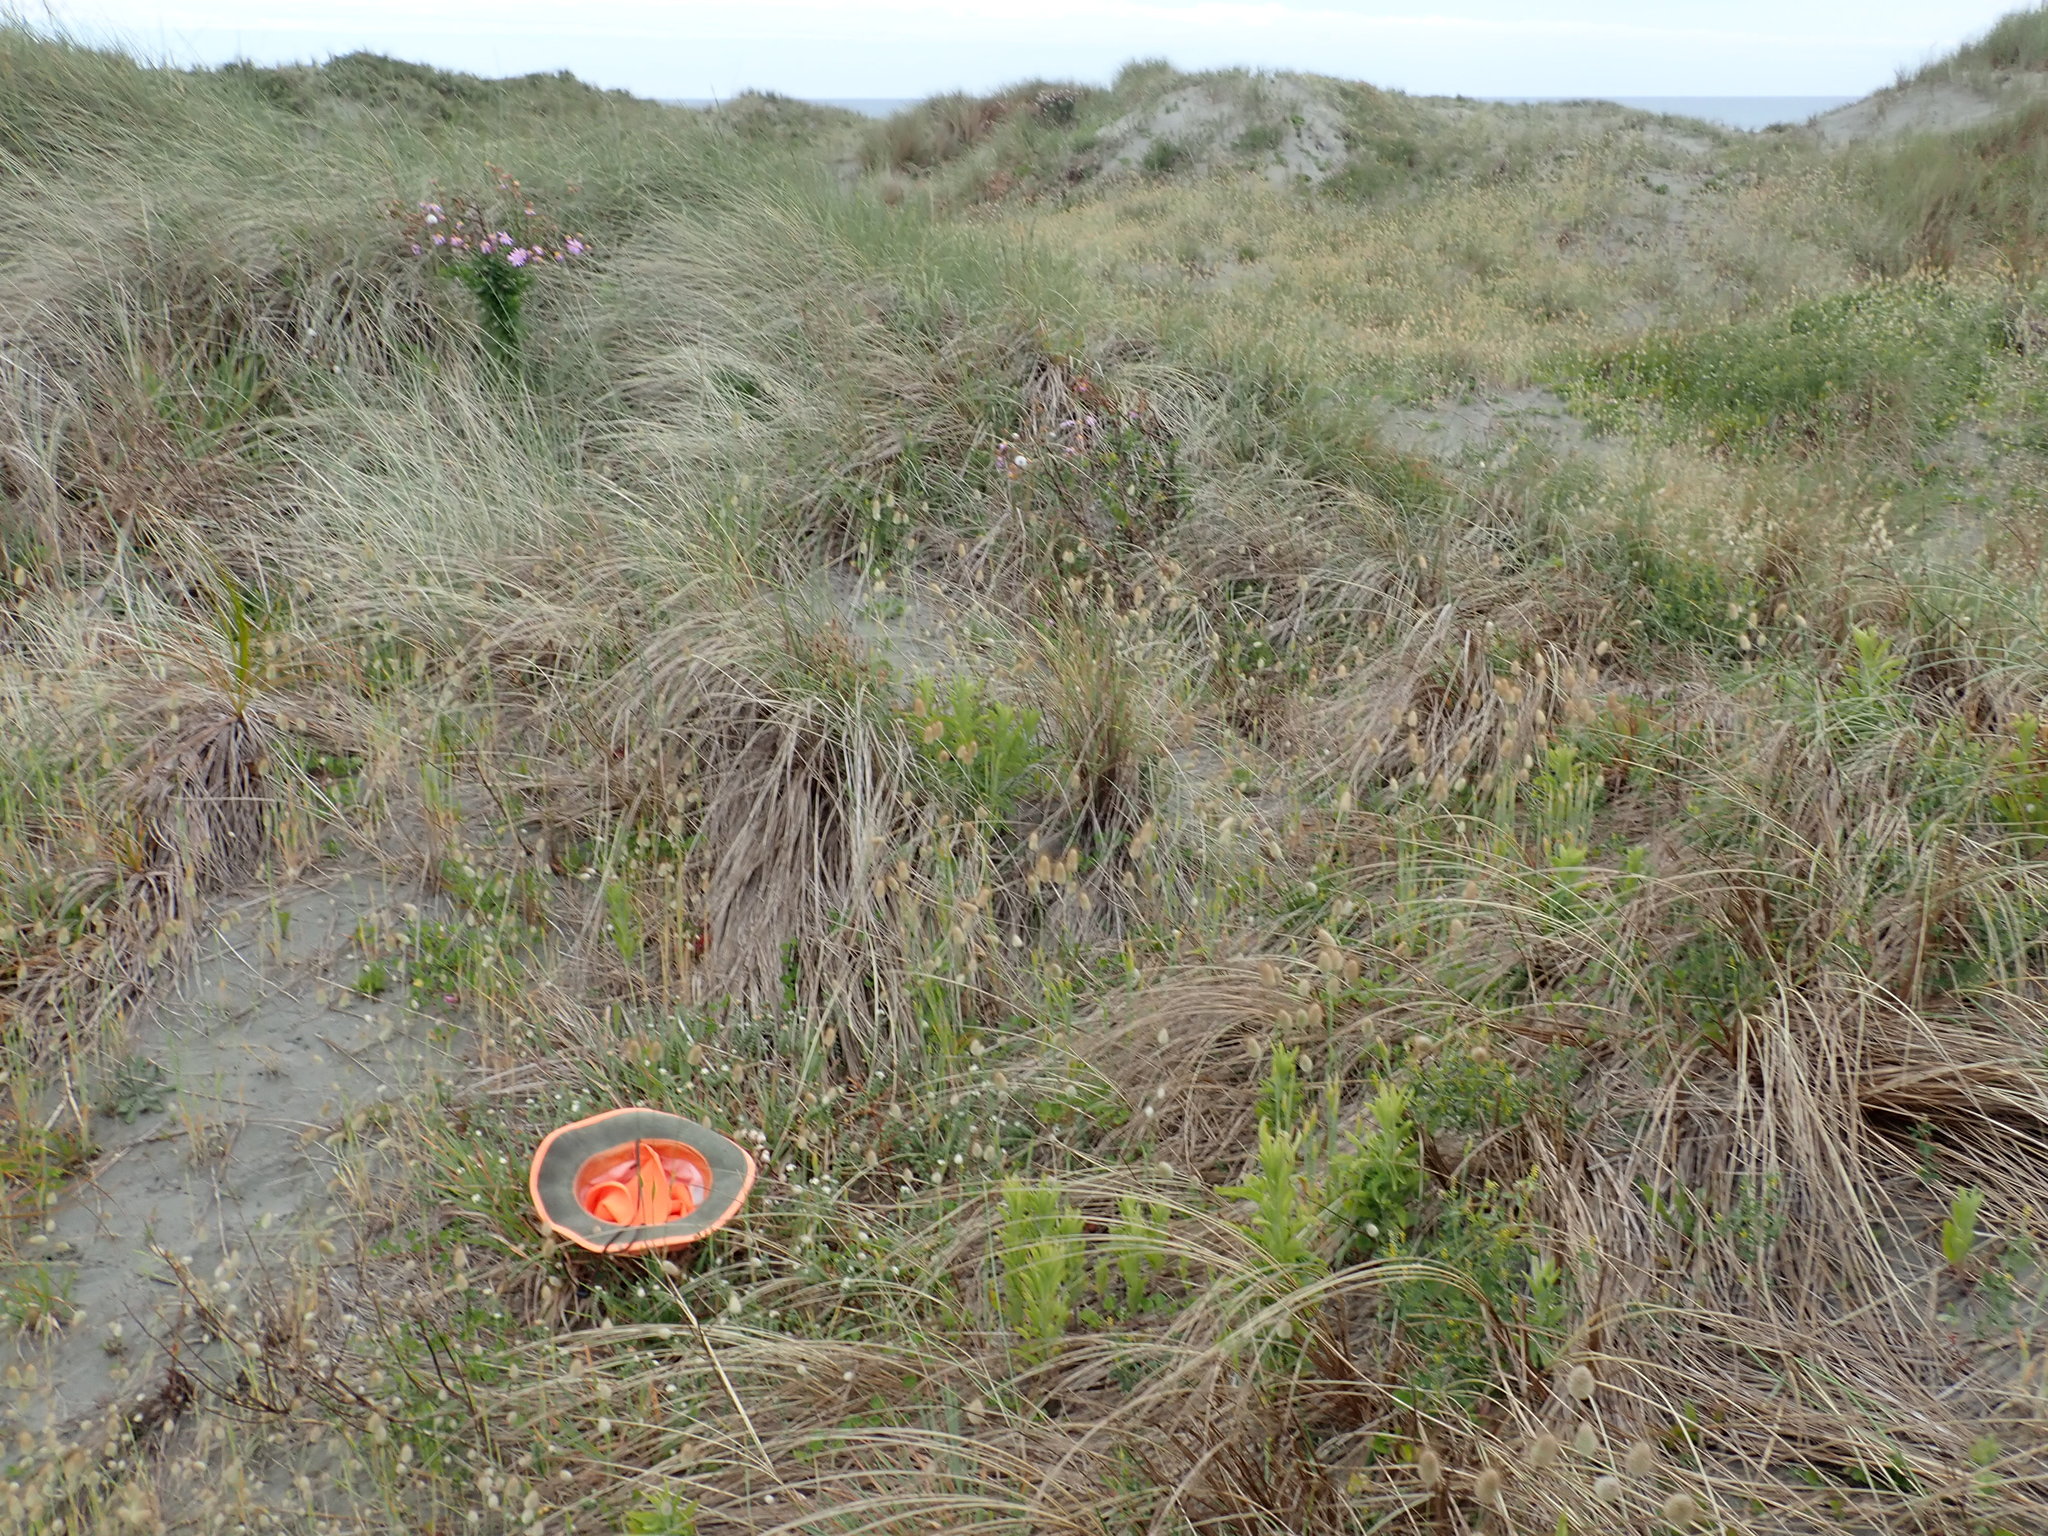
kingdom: Plantae
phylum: Tracheophyta
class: Magnoliopsida
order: Malvales
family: Thymelaeaceae
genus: Pimelea
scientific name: Pimelea villosa
